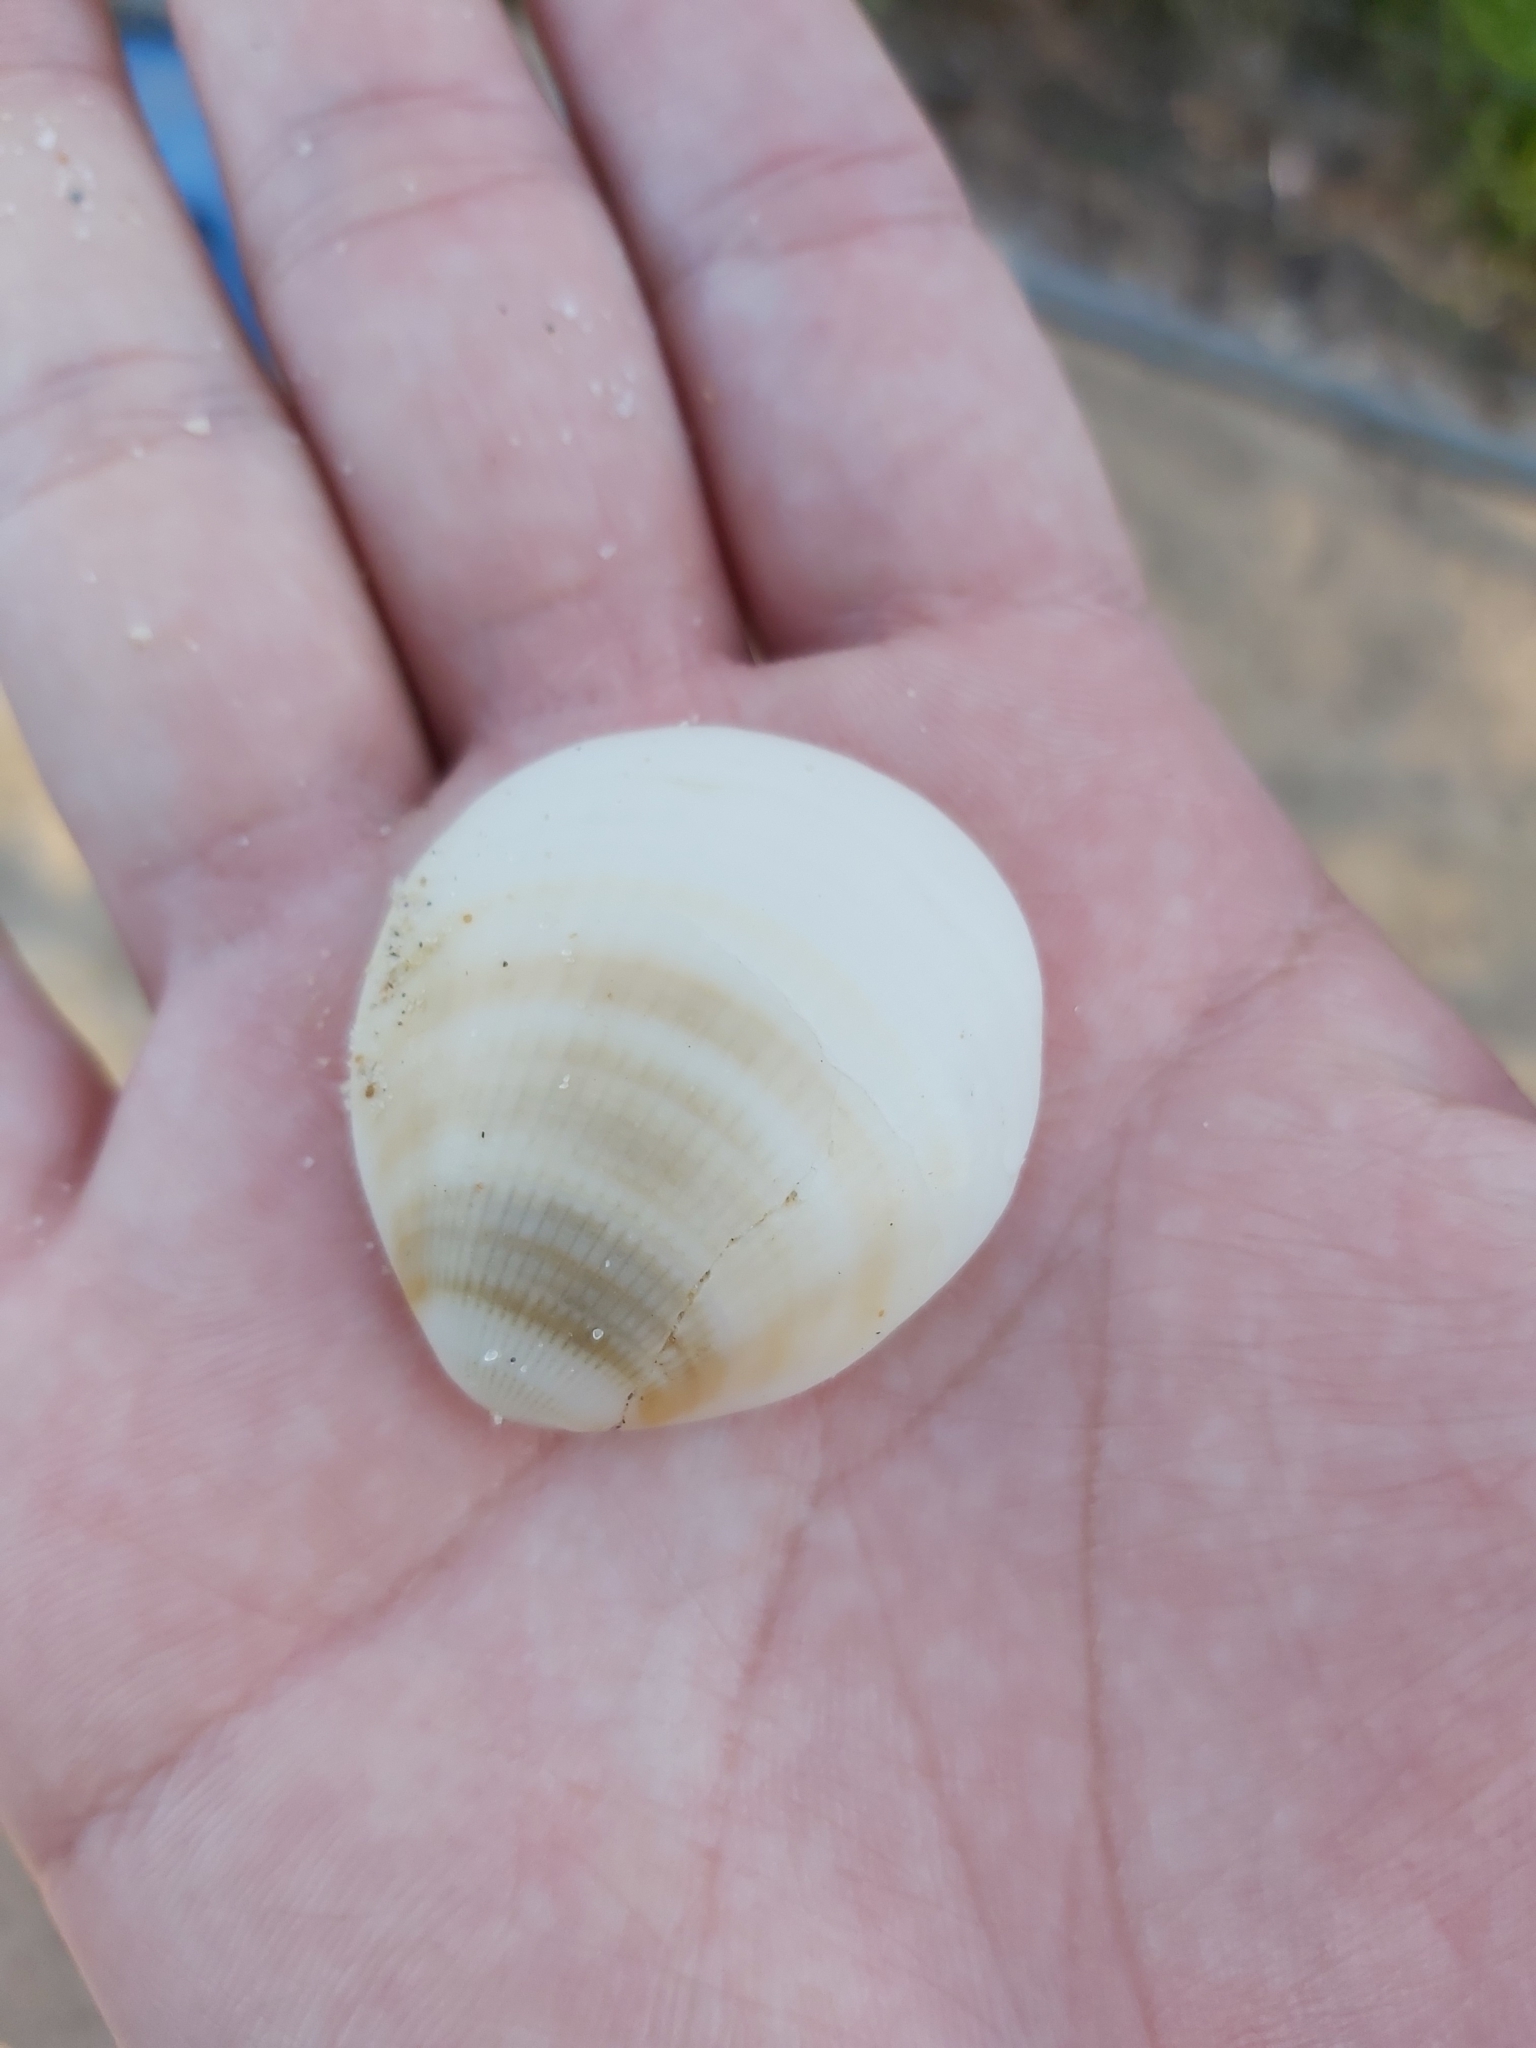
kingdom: Animalia
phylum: Mollusca
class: Bivalvia
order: Arcida
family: Glycymerididae
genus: Glycymeris
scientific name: Glycymeris grayana
